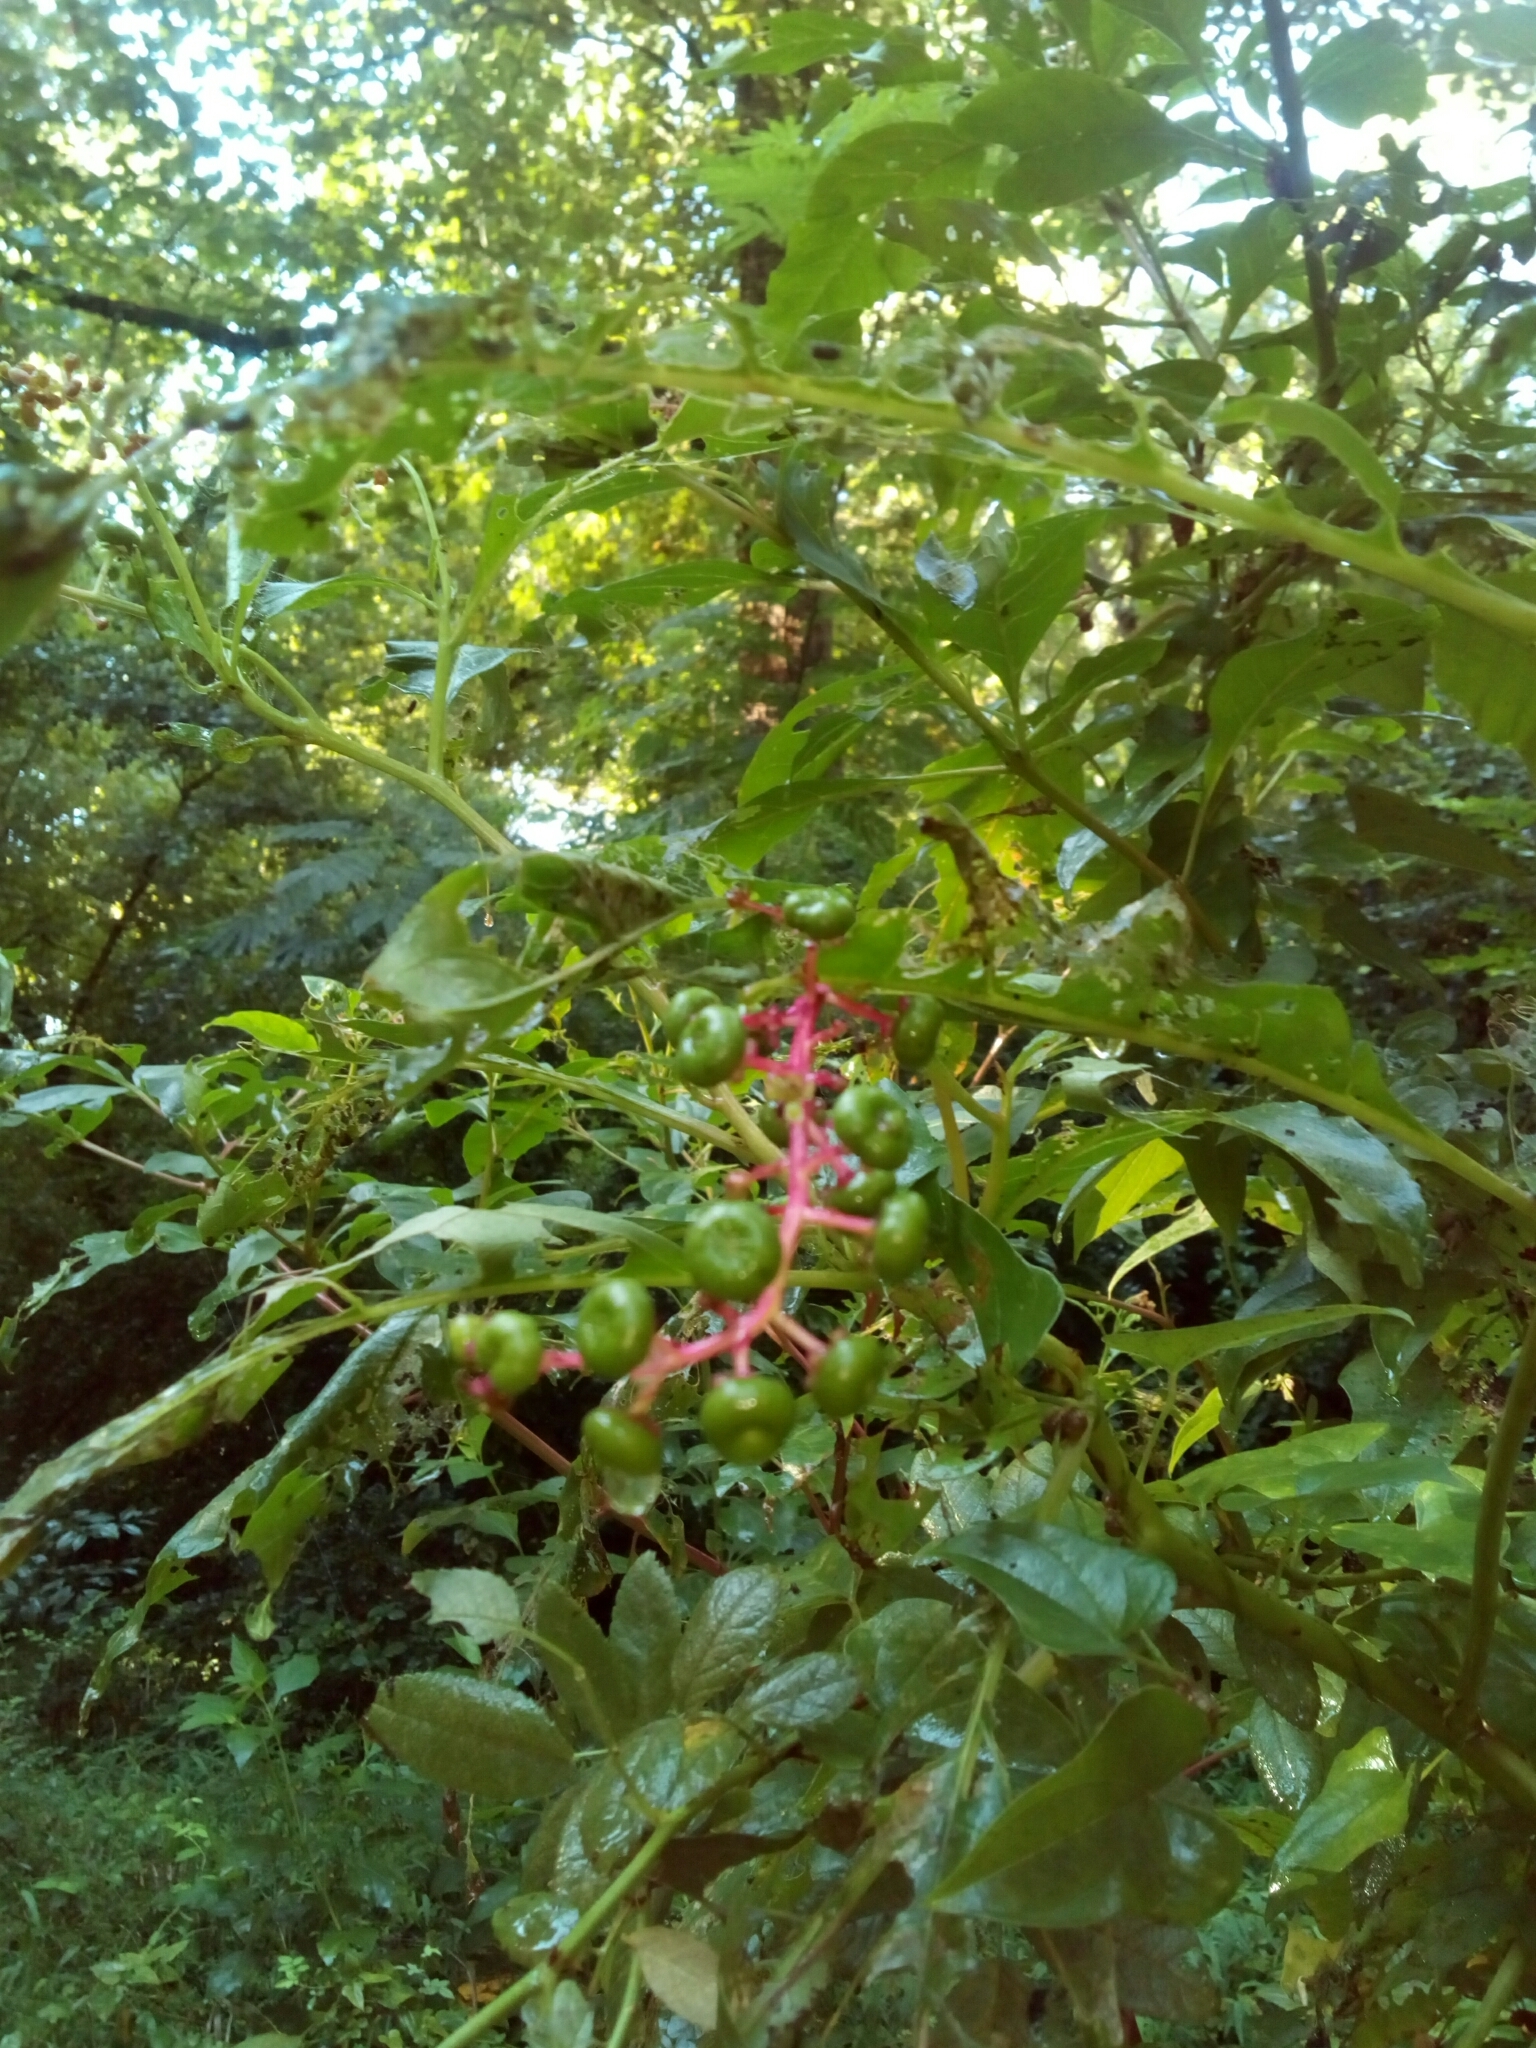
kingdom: Plantae
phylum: Tracheophyta
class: Magnoliopsida
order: Caryophyllales
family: Phytolaccaceae
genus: Phytolacca
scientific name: Phytolacca americana
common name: American pokeweed
